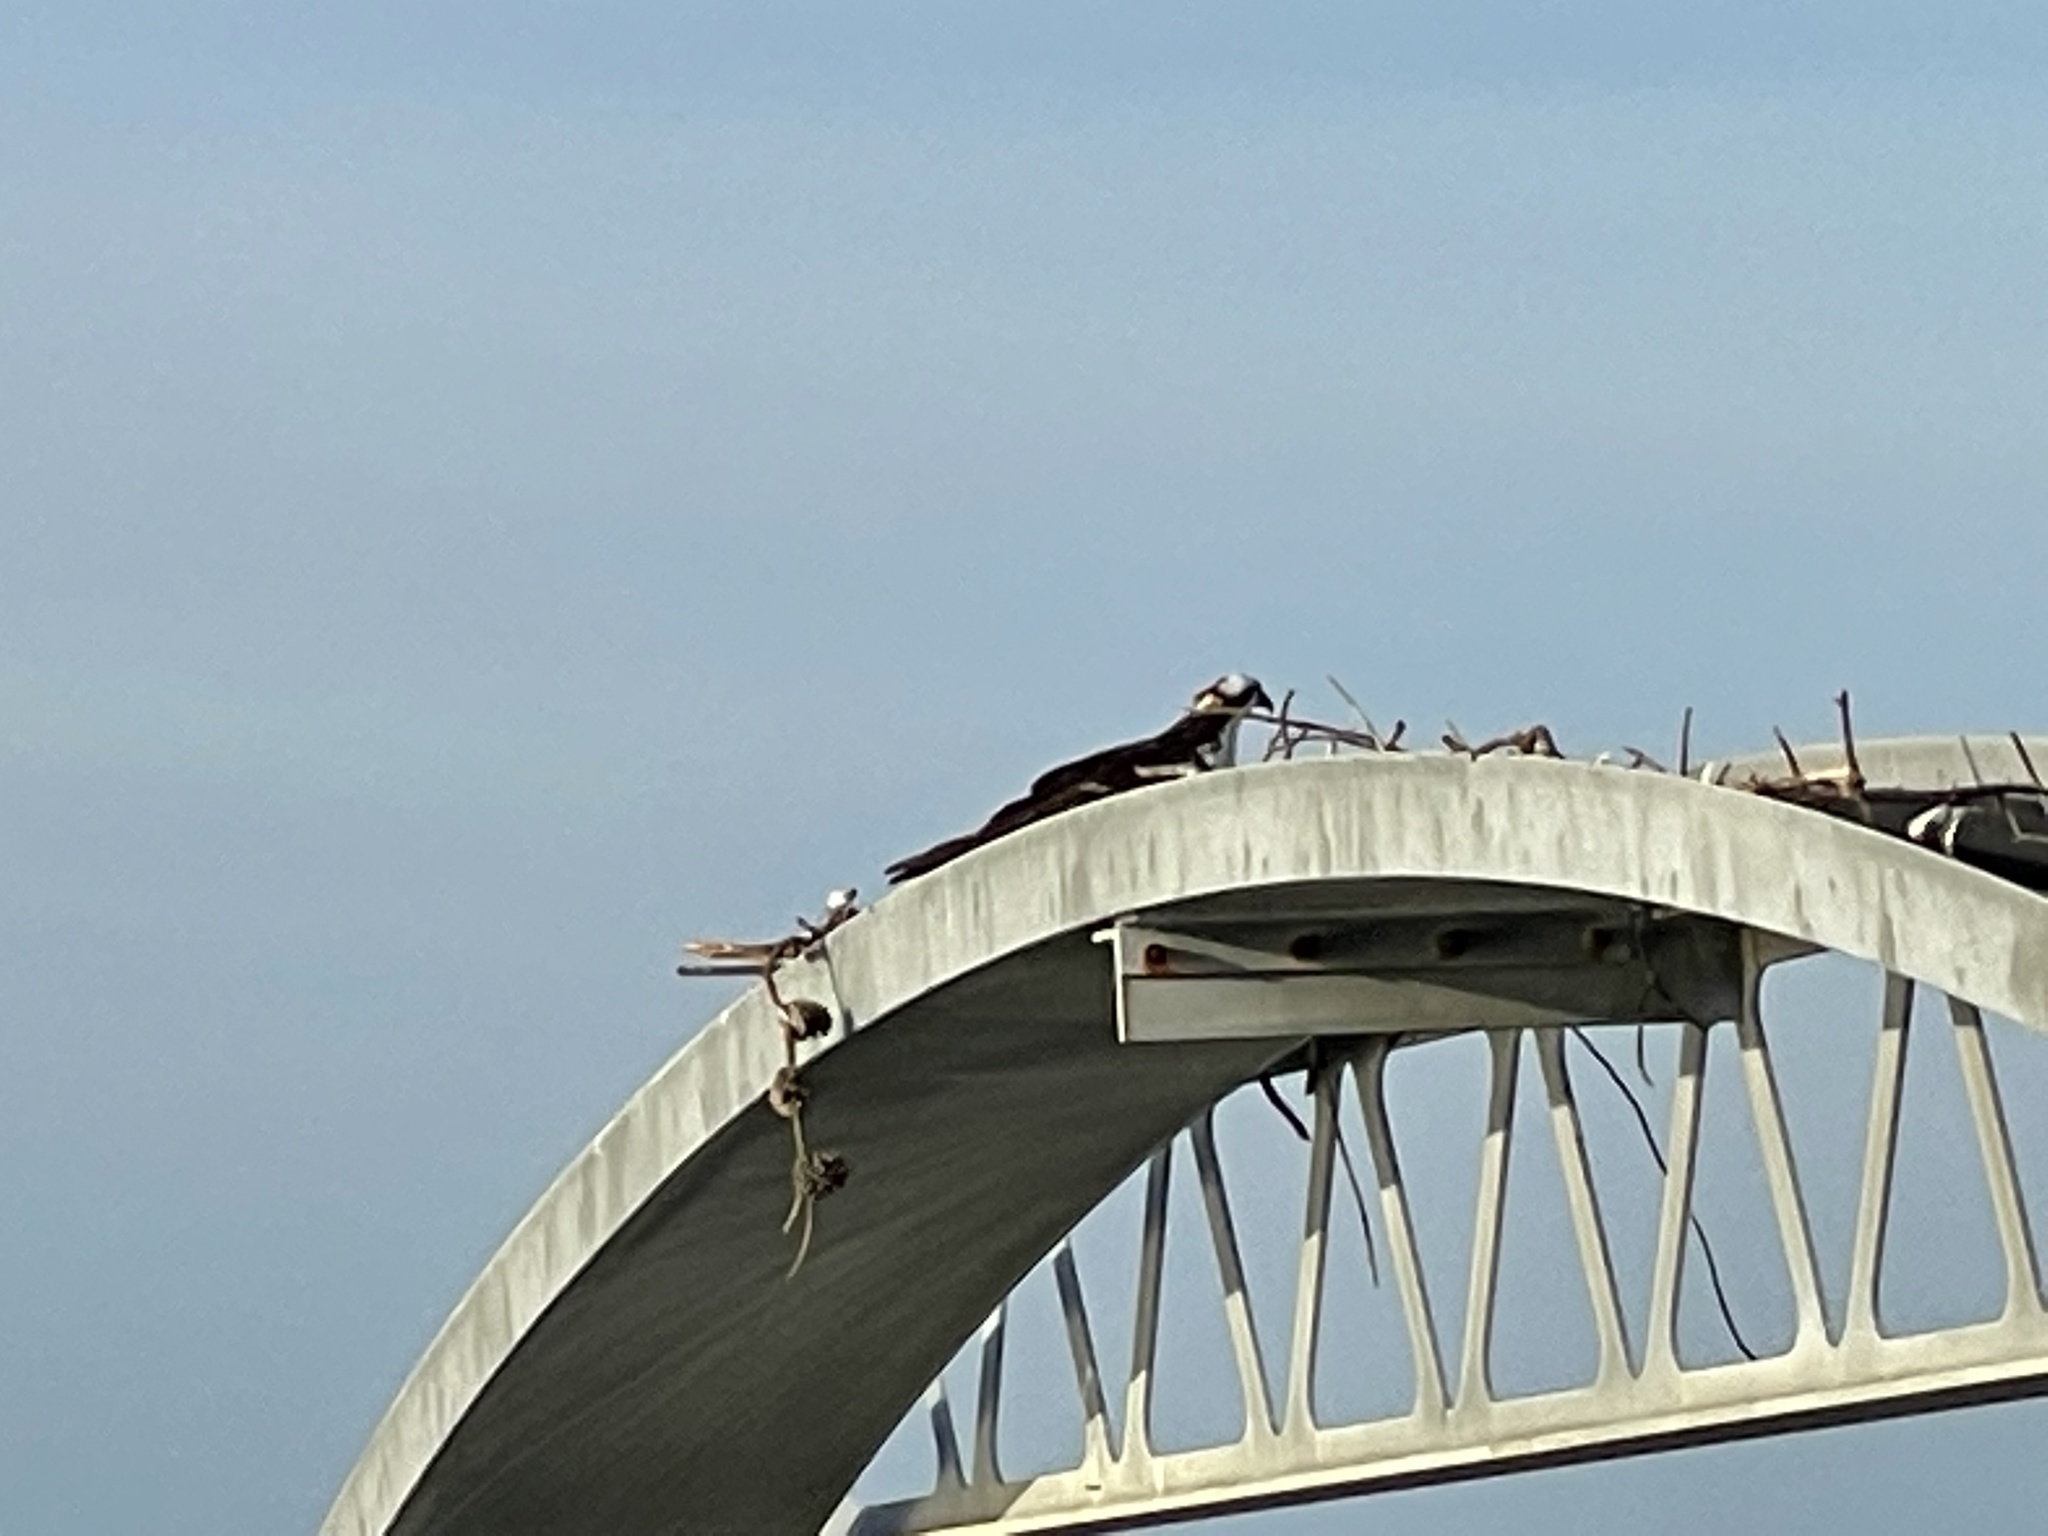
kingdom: Animalia
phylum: Chordata
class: Aves
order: Accipitriformes
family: Pandionidae
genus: Pandion
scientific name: Pandion haliaetus
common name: Osprey
